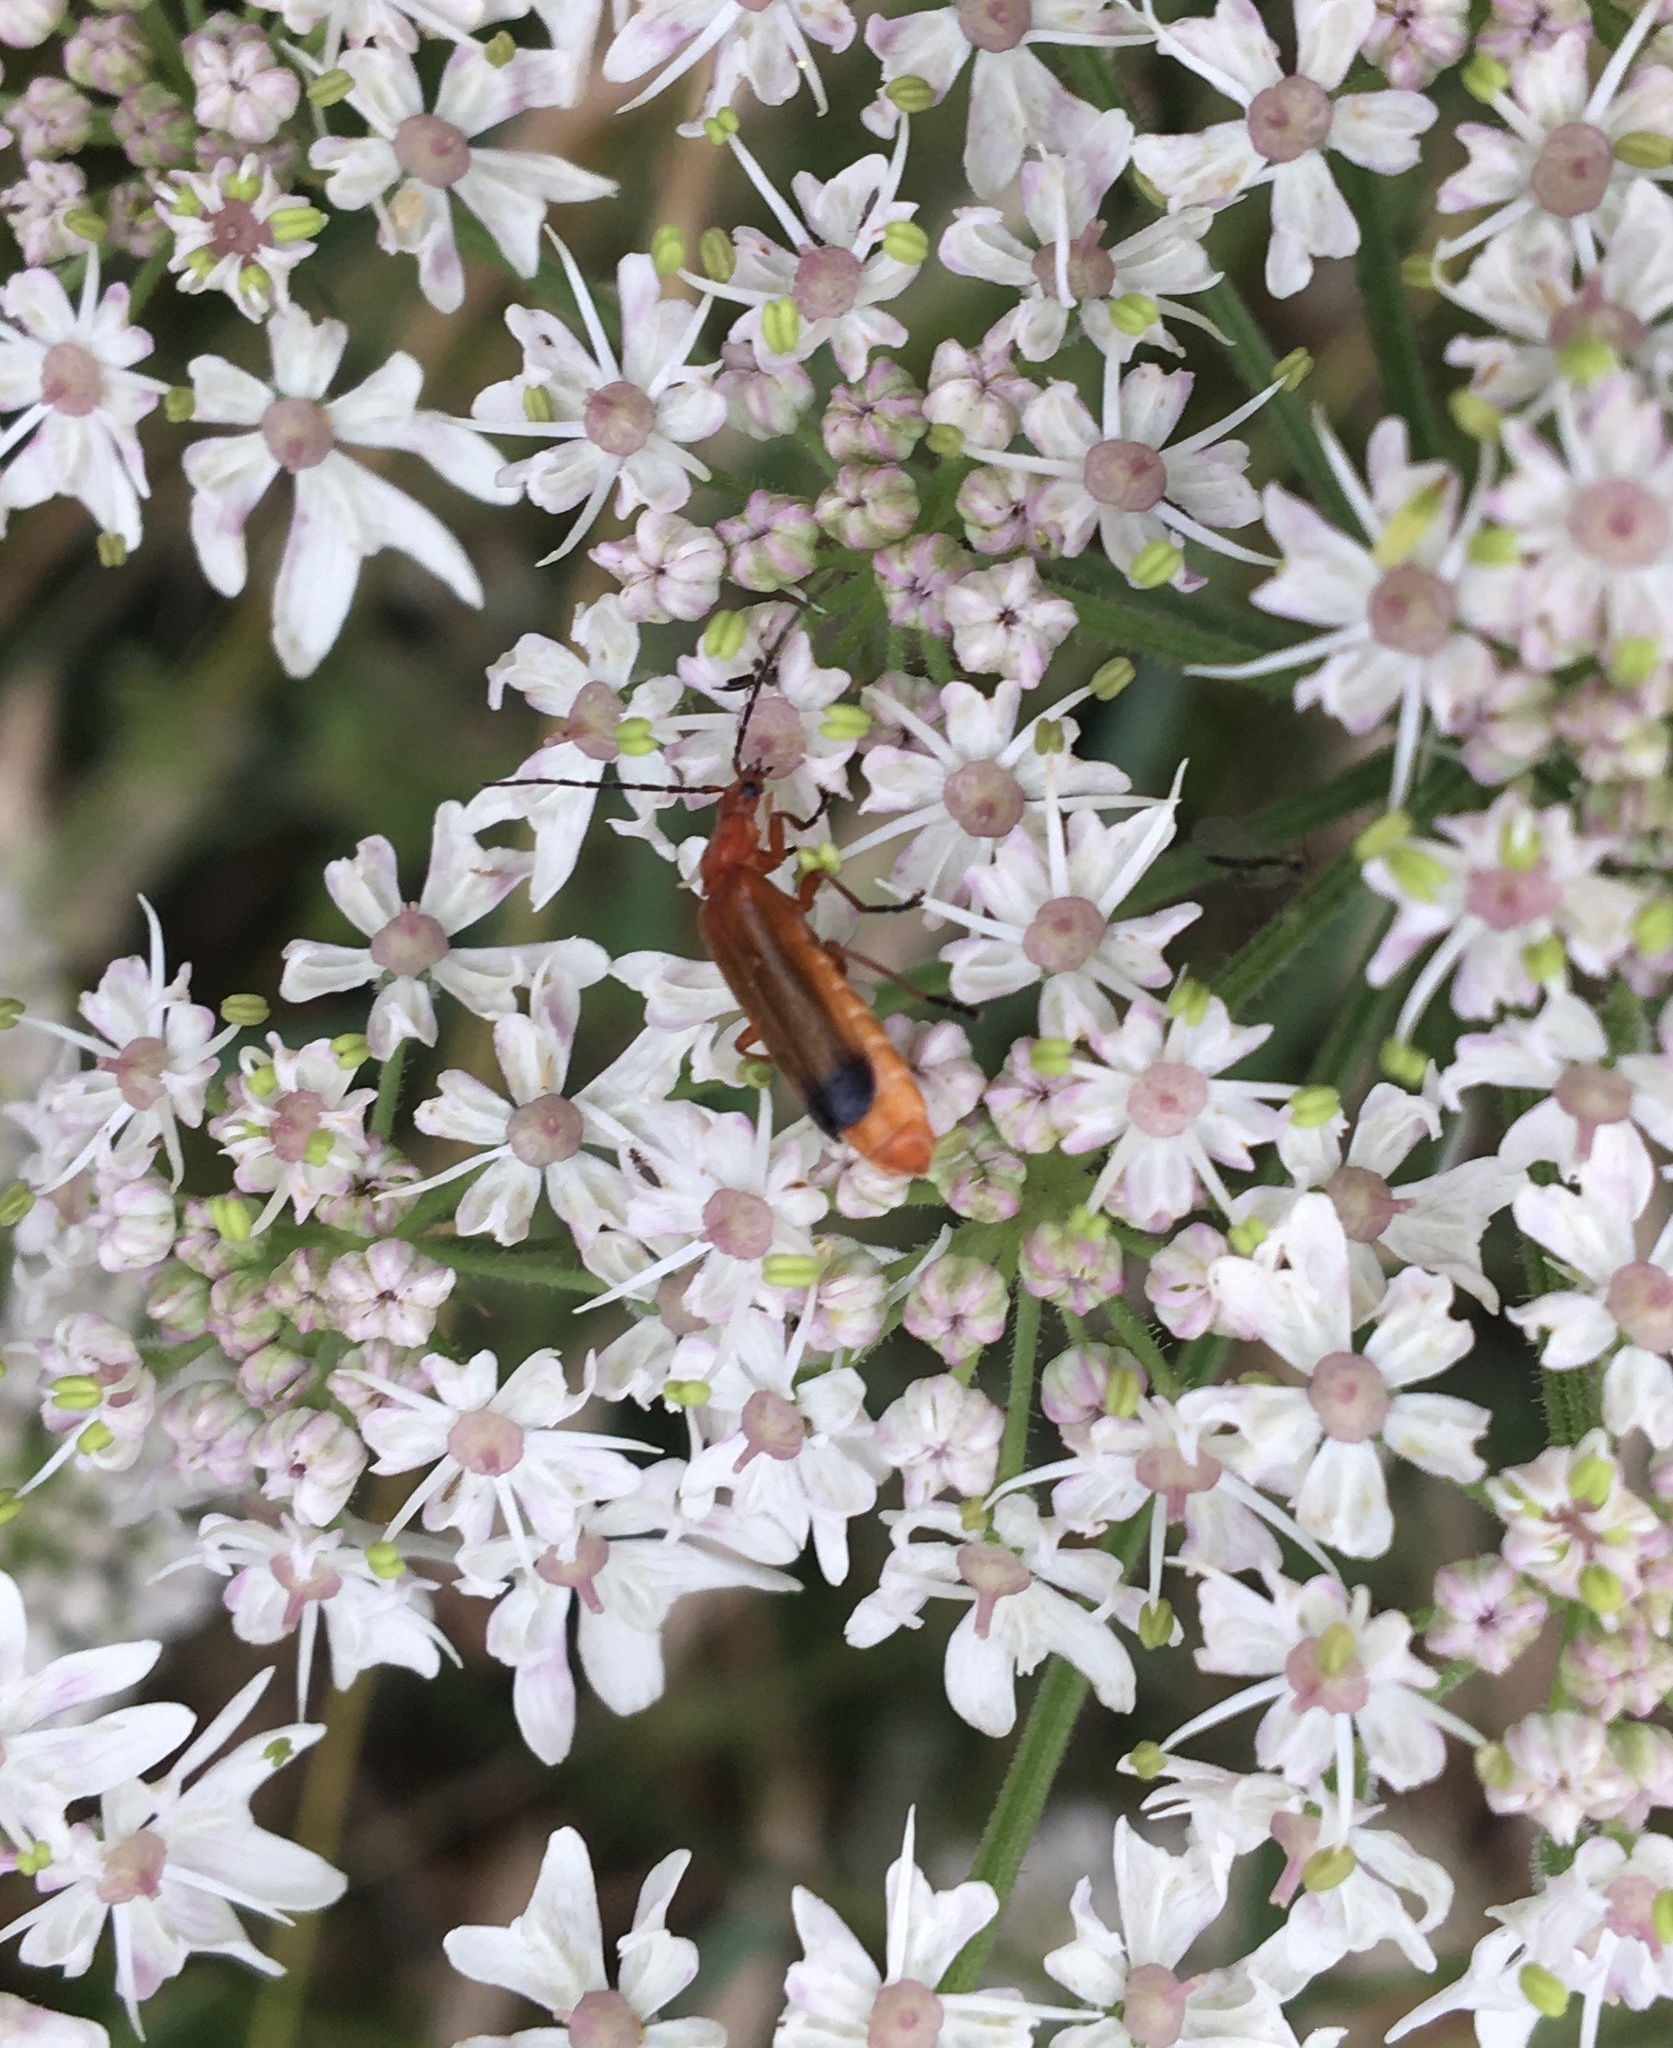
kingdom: Animalia
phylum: Arthropoda
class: Insecta
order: Coleoptera
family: Cantharidae
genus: Rhagonycha
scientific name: Rhagonycha fulva
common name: Common red soldier beetle
